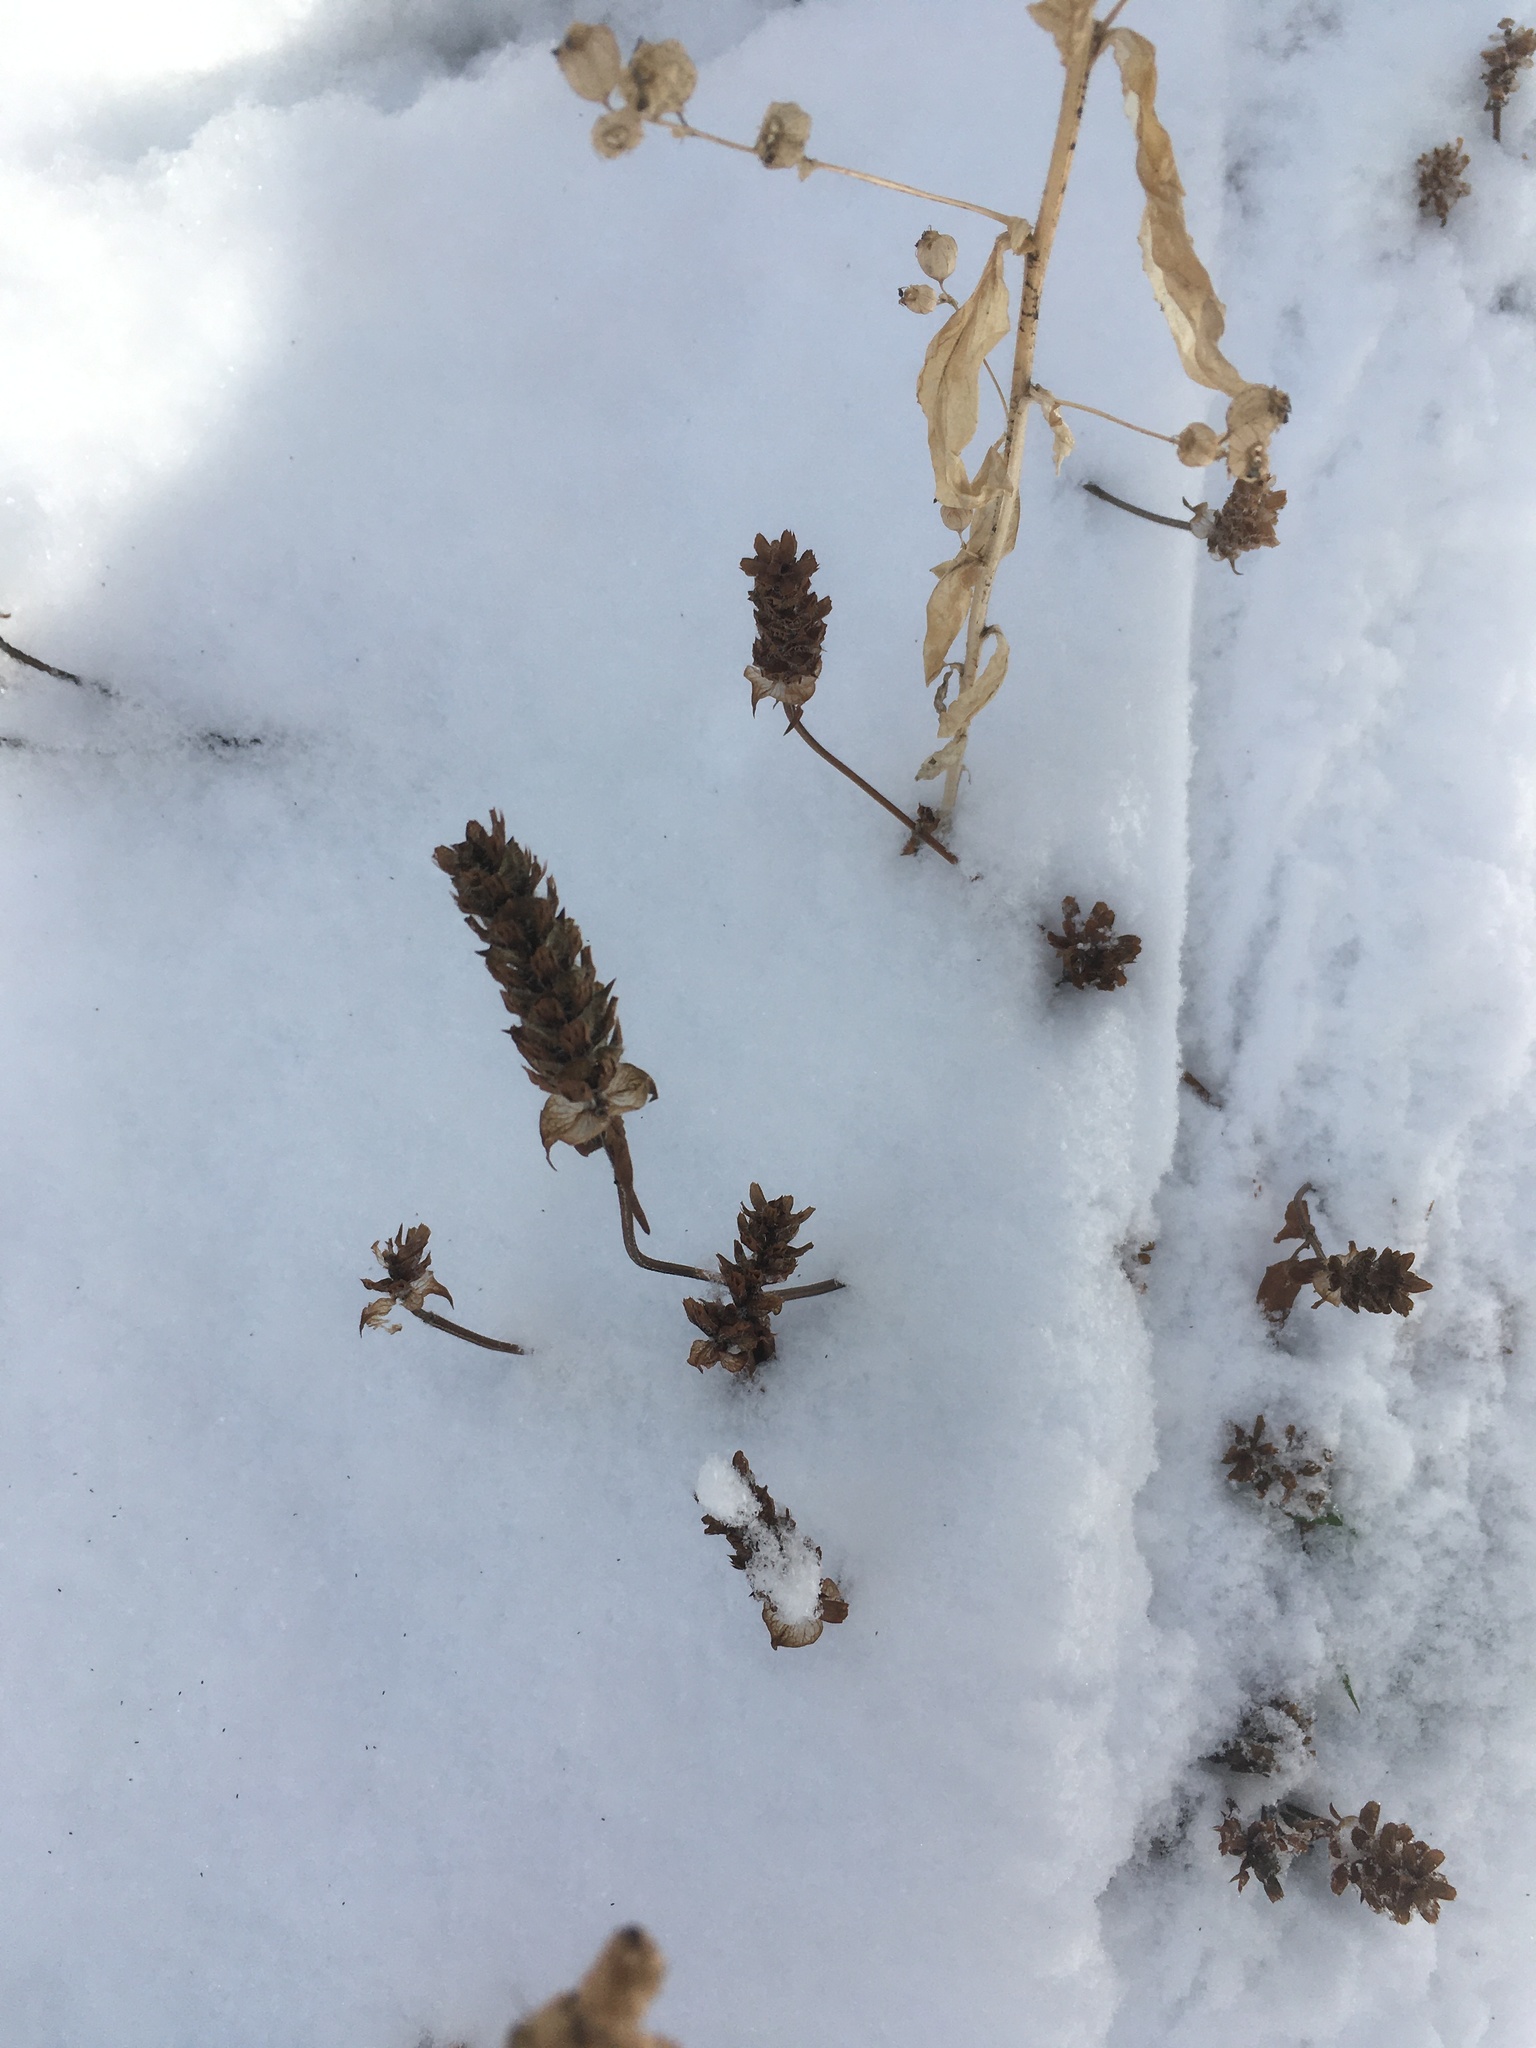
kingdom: Plantae
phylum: Tracheophyta
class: Magnoliopsida
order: Lamiales
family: Lamiaceae
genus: Prunella
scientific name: Prunella vulgaris
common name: Heal-all
